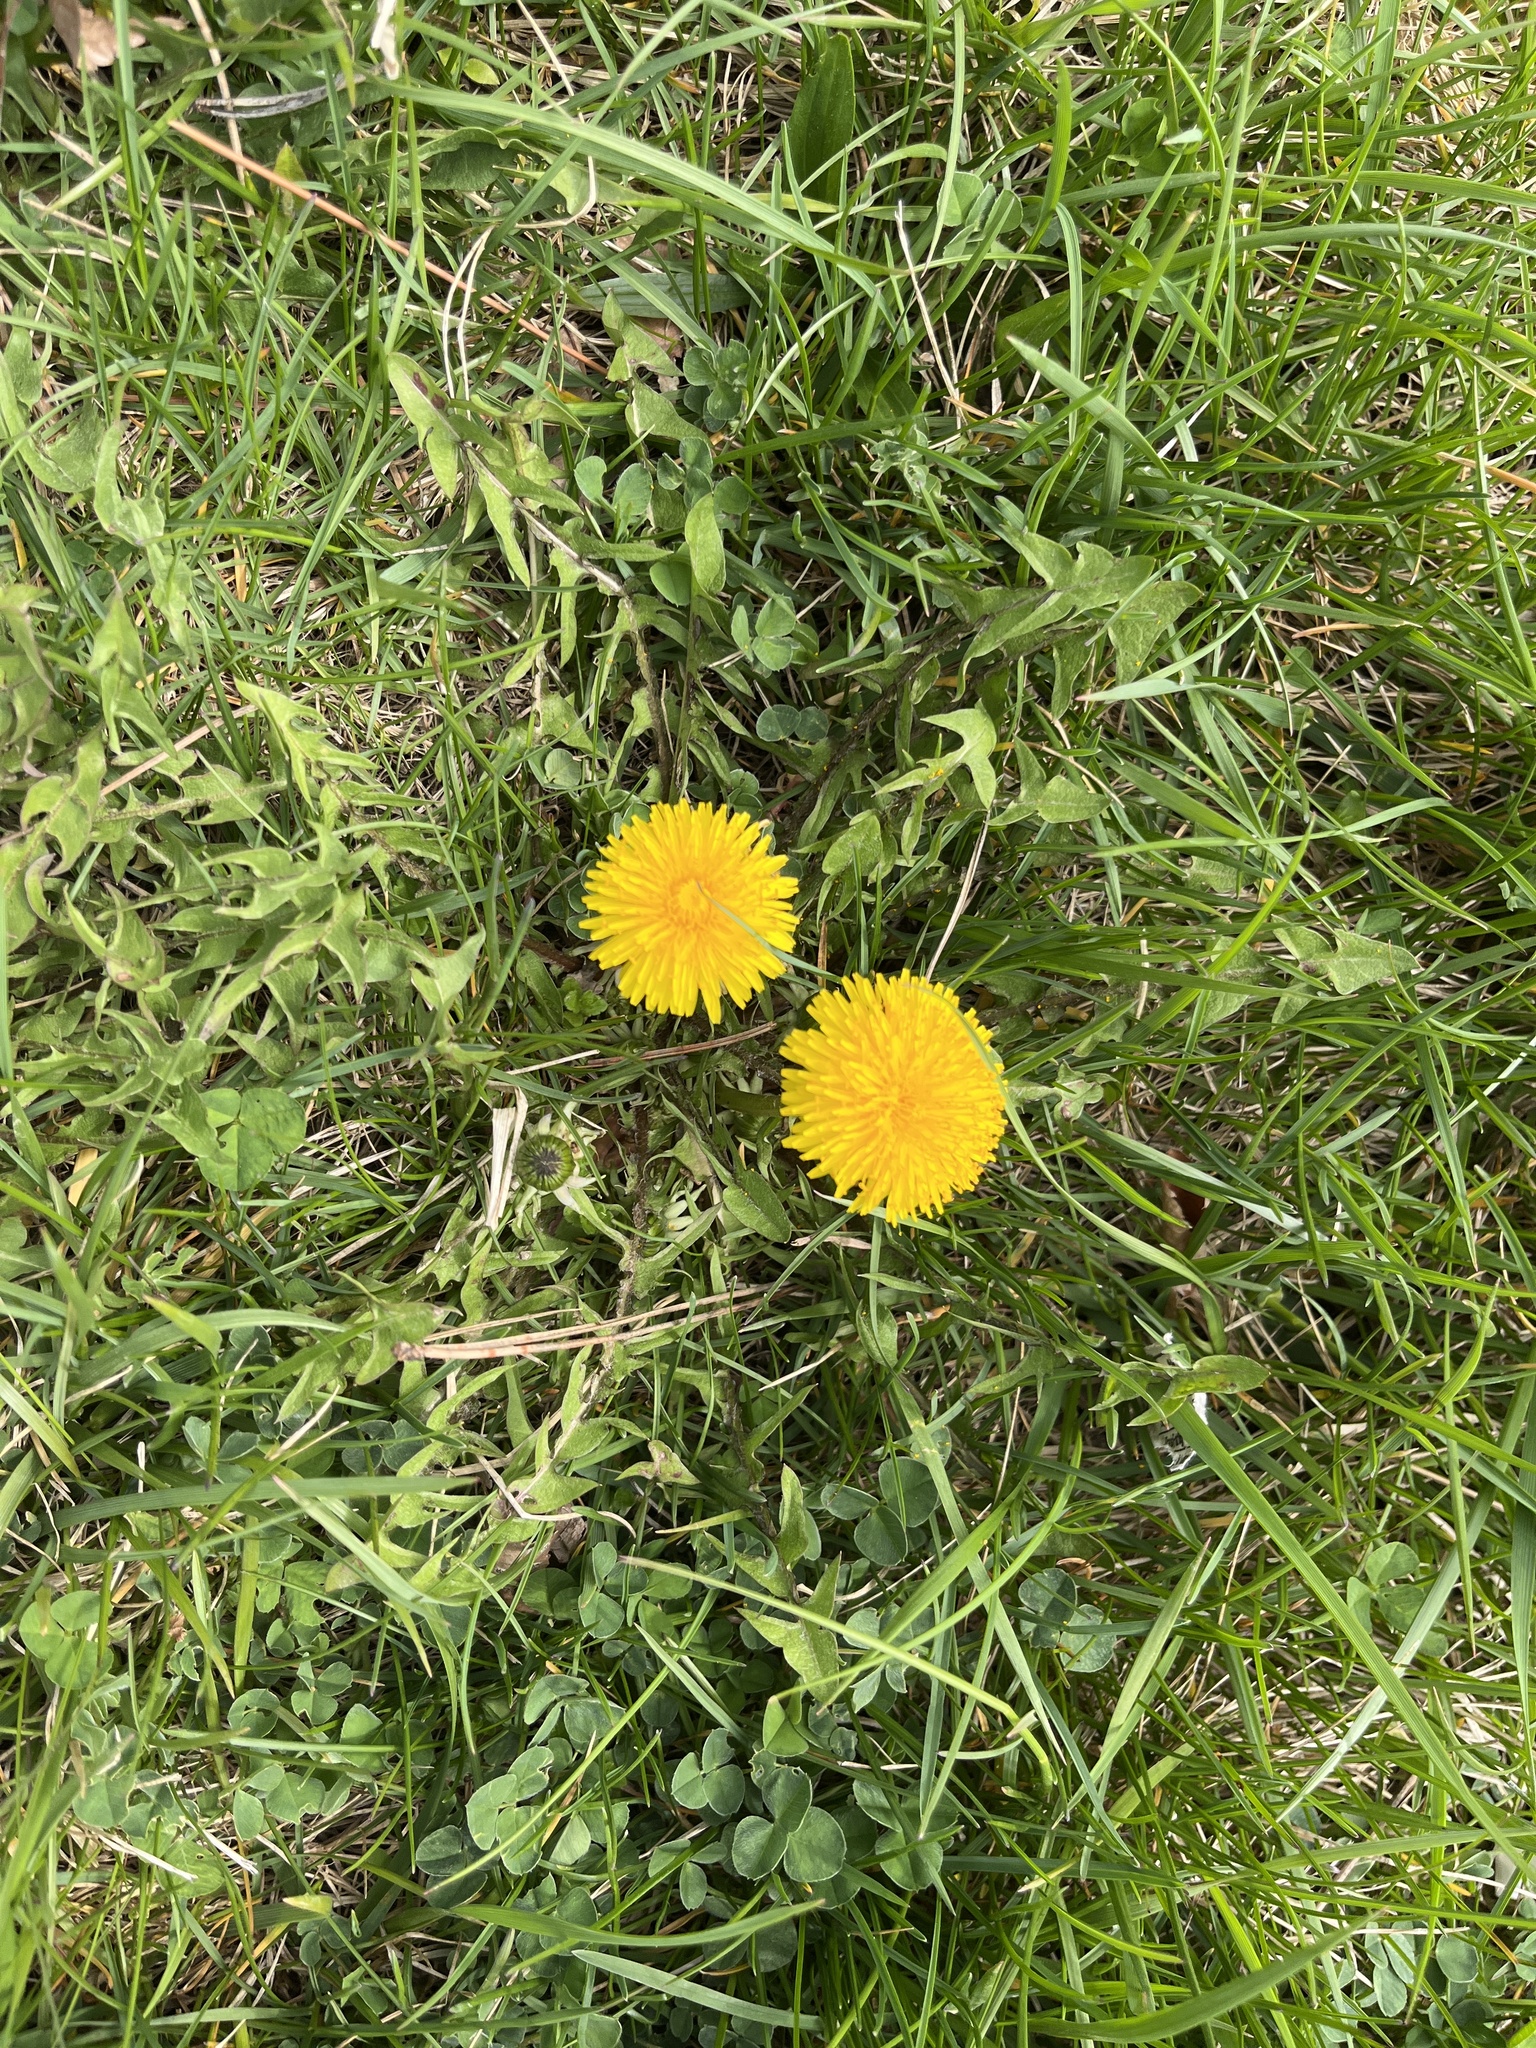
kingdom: Plantae
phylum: Tracheophyta
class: Magnoliopsida
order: Asterales
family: Asteraceae
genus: Taraxacum
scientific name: Taraxacum officinale
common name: Common dandelion
